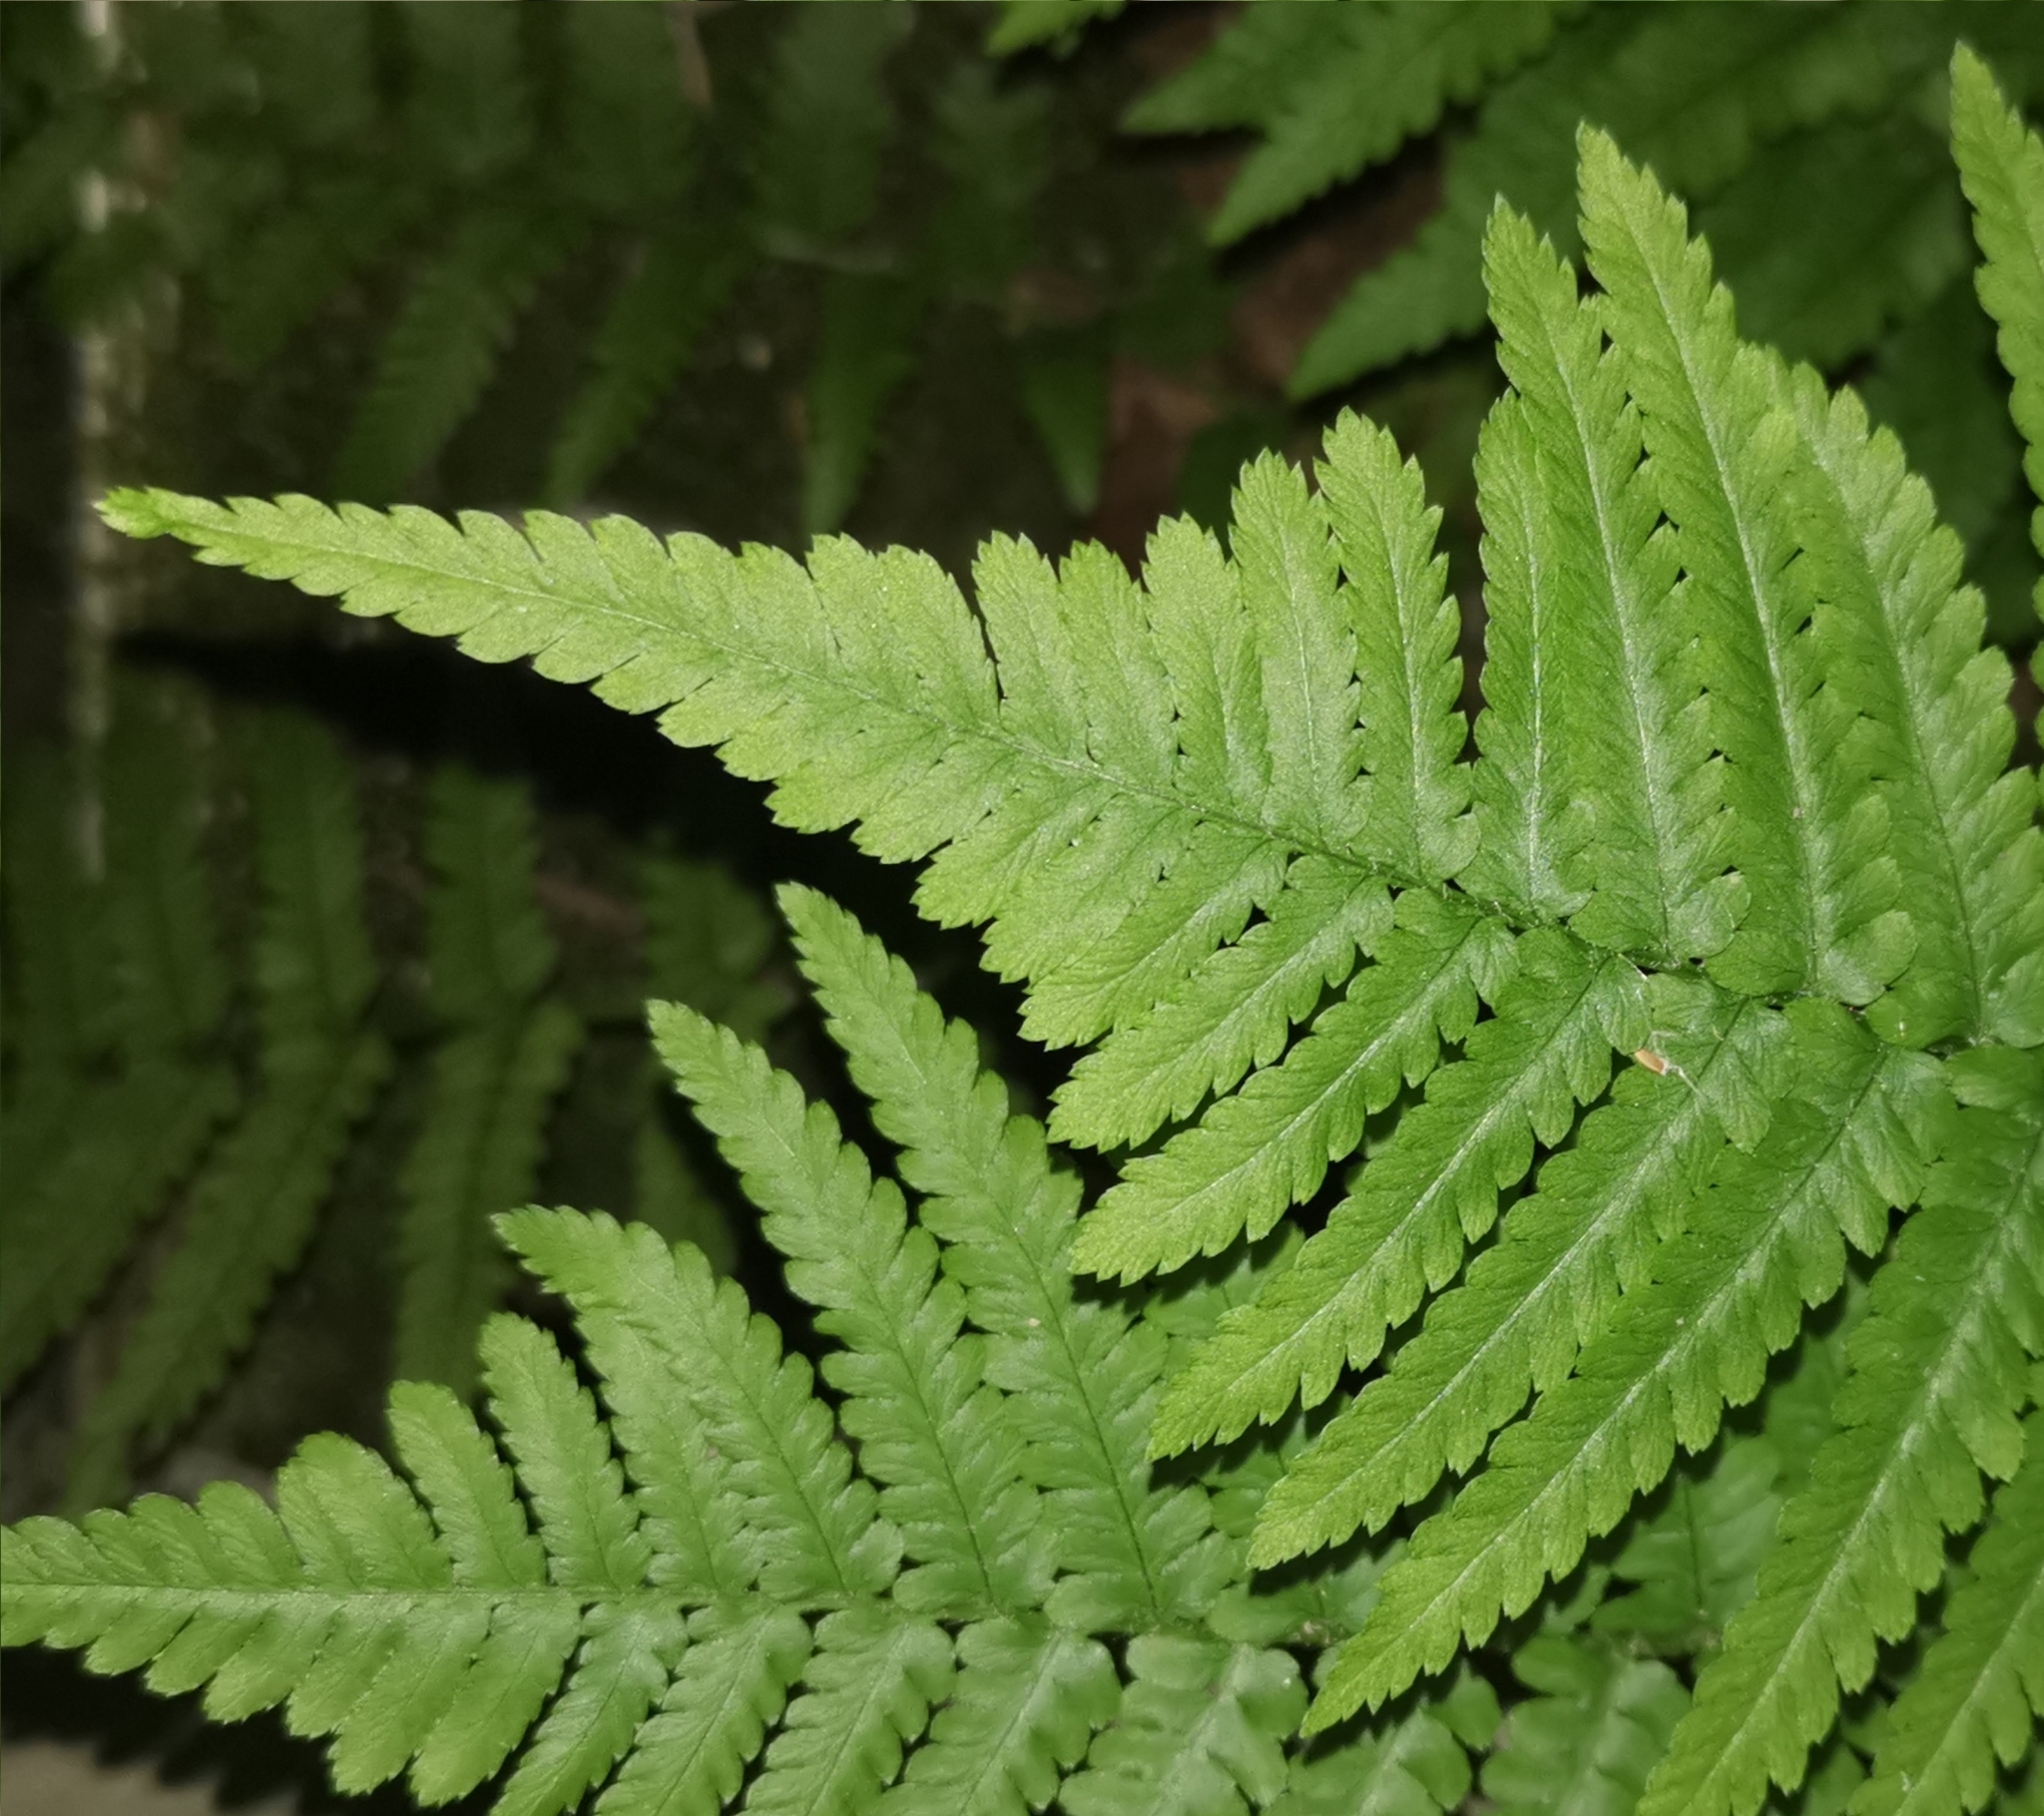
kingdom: Plantae
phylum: Tracheophyta
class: Polypodiopsida
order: Polypodiales
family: Dryopteridaceae
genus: Dryopteris
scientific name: Dryopteris filix-mas
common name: Male fern
